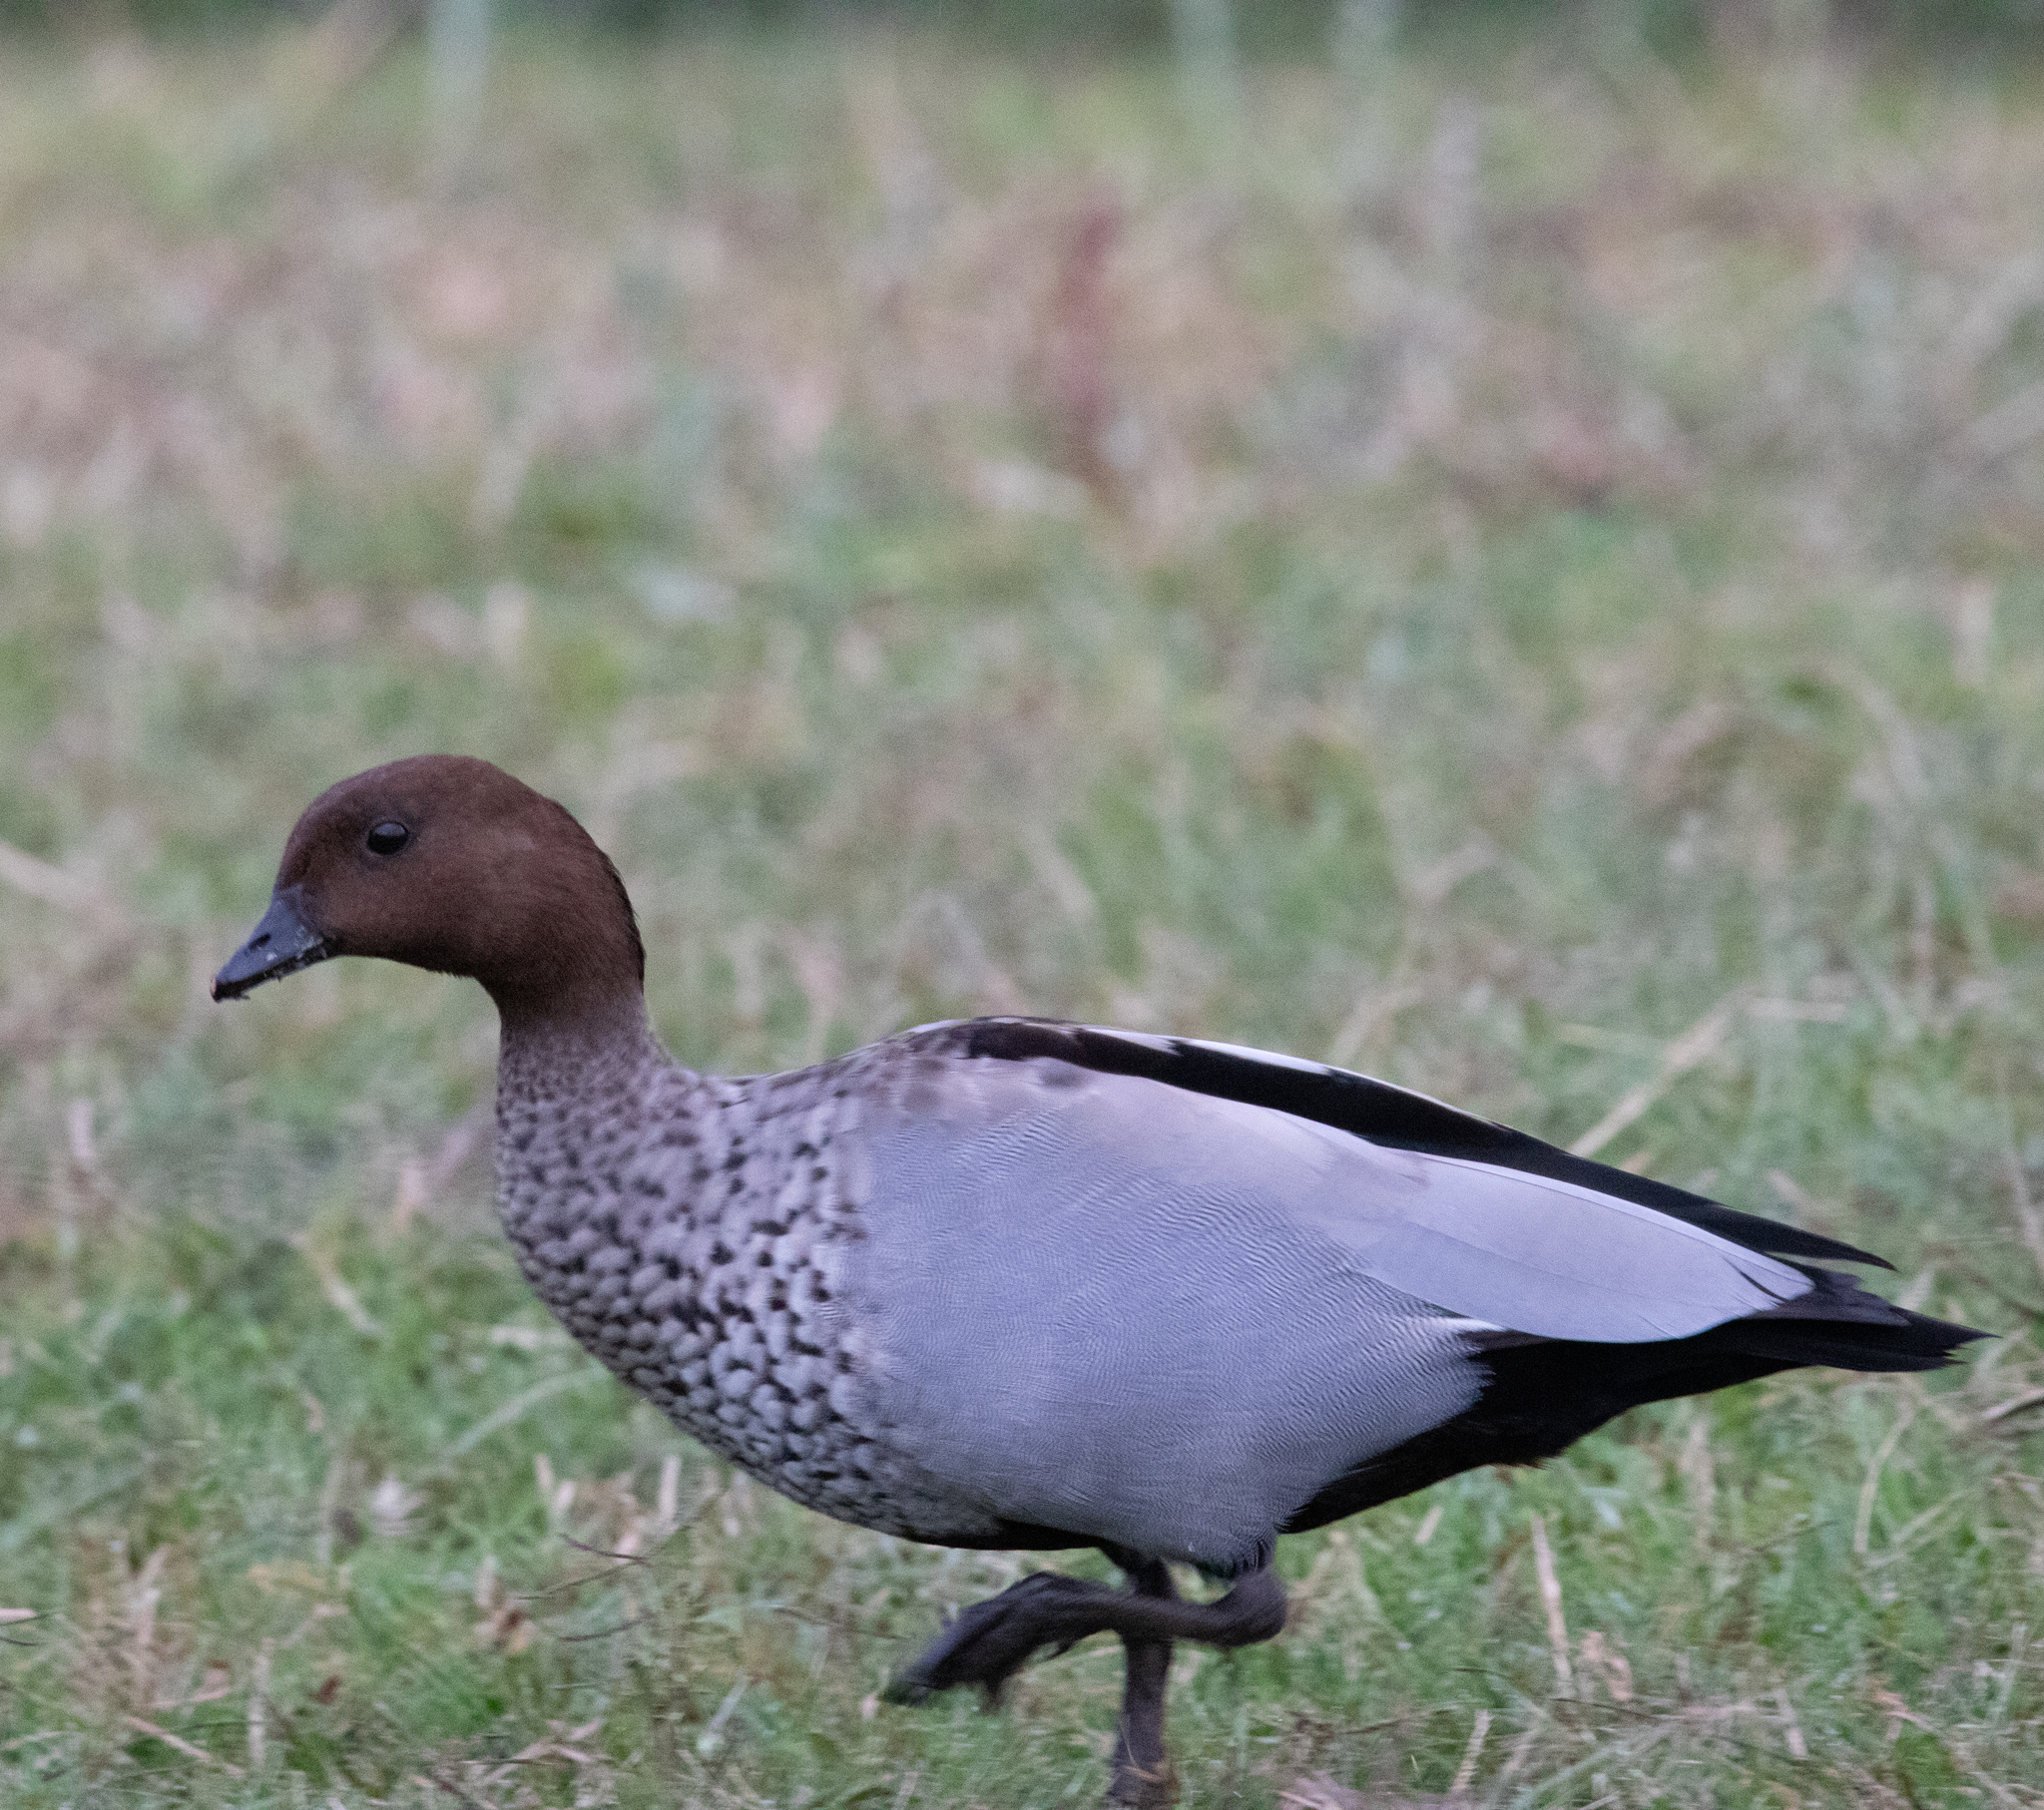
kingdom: Animalia
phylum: Chordata
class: Aves
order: Anseriformes
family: Anatidae
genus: Chenonetta
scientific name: Chenonetta jubata
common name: Maned duck
